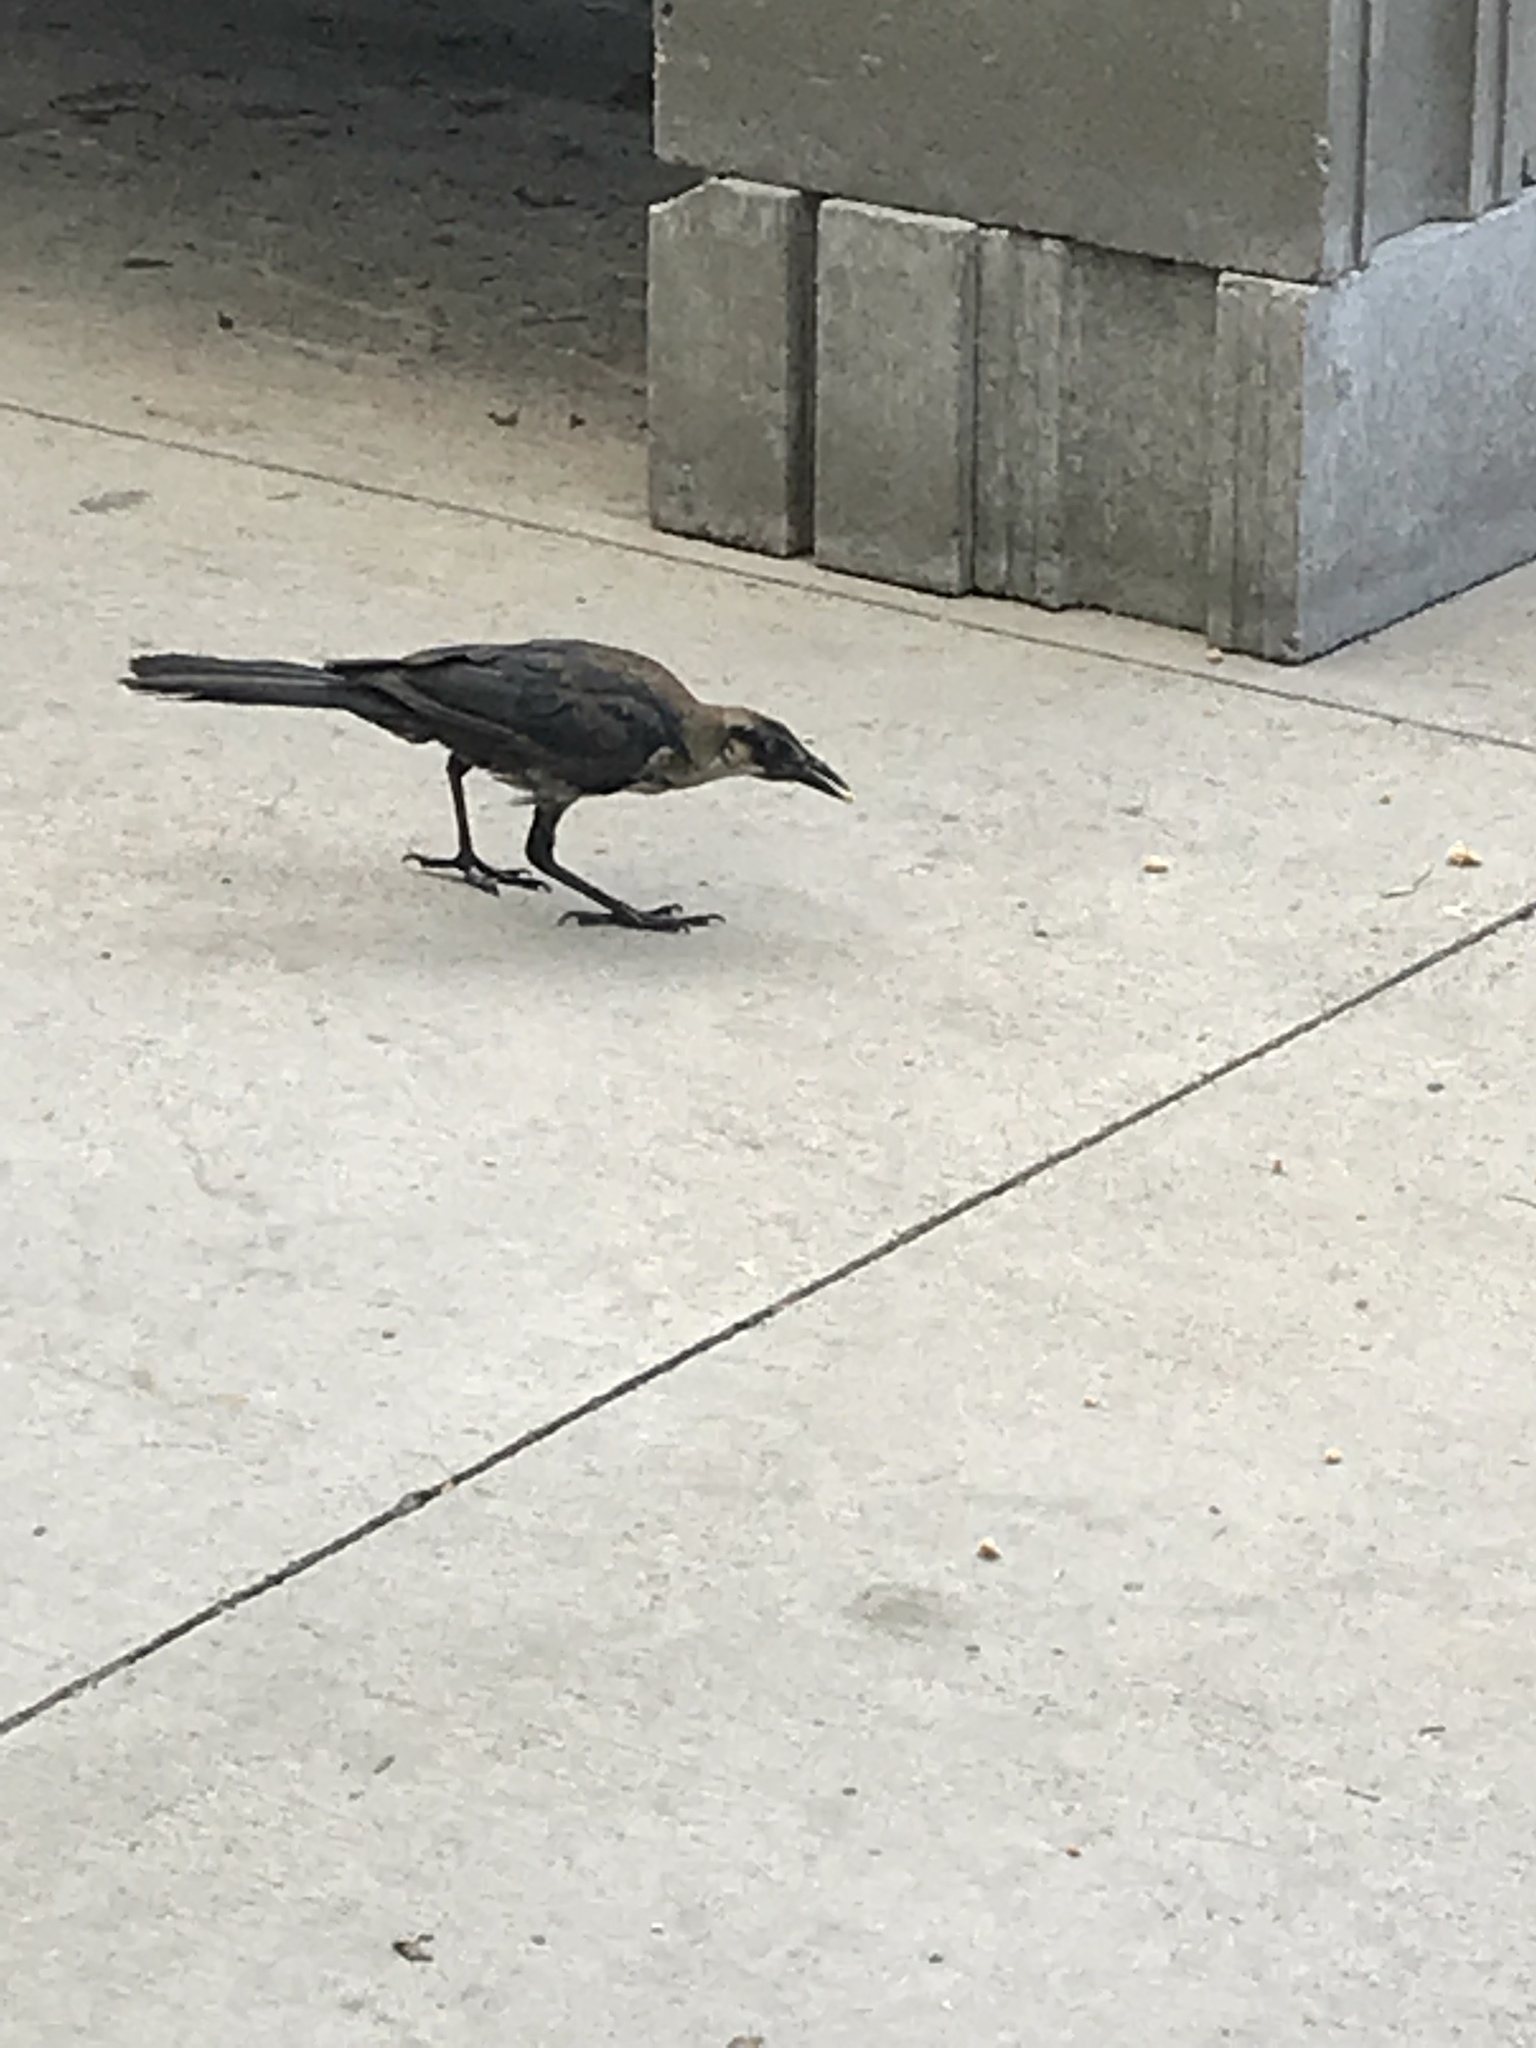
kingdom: Animalia
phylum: Chordata
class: Aves
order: Passeriformes
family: Icteridae
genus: Quiscalus
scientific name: Quiscalus mexicanus
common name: Great-tailed grackle
